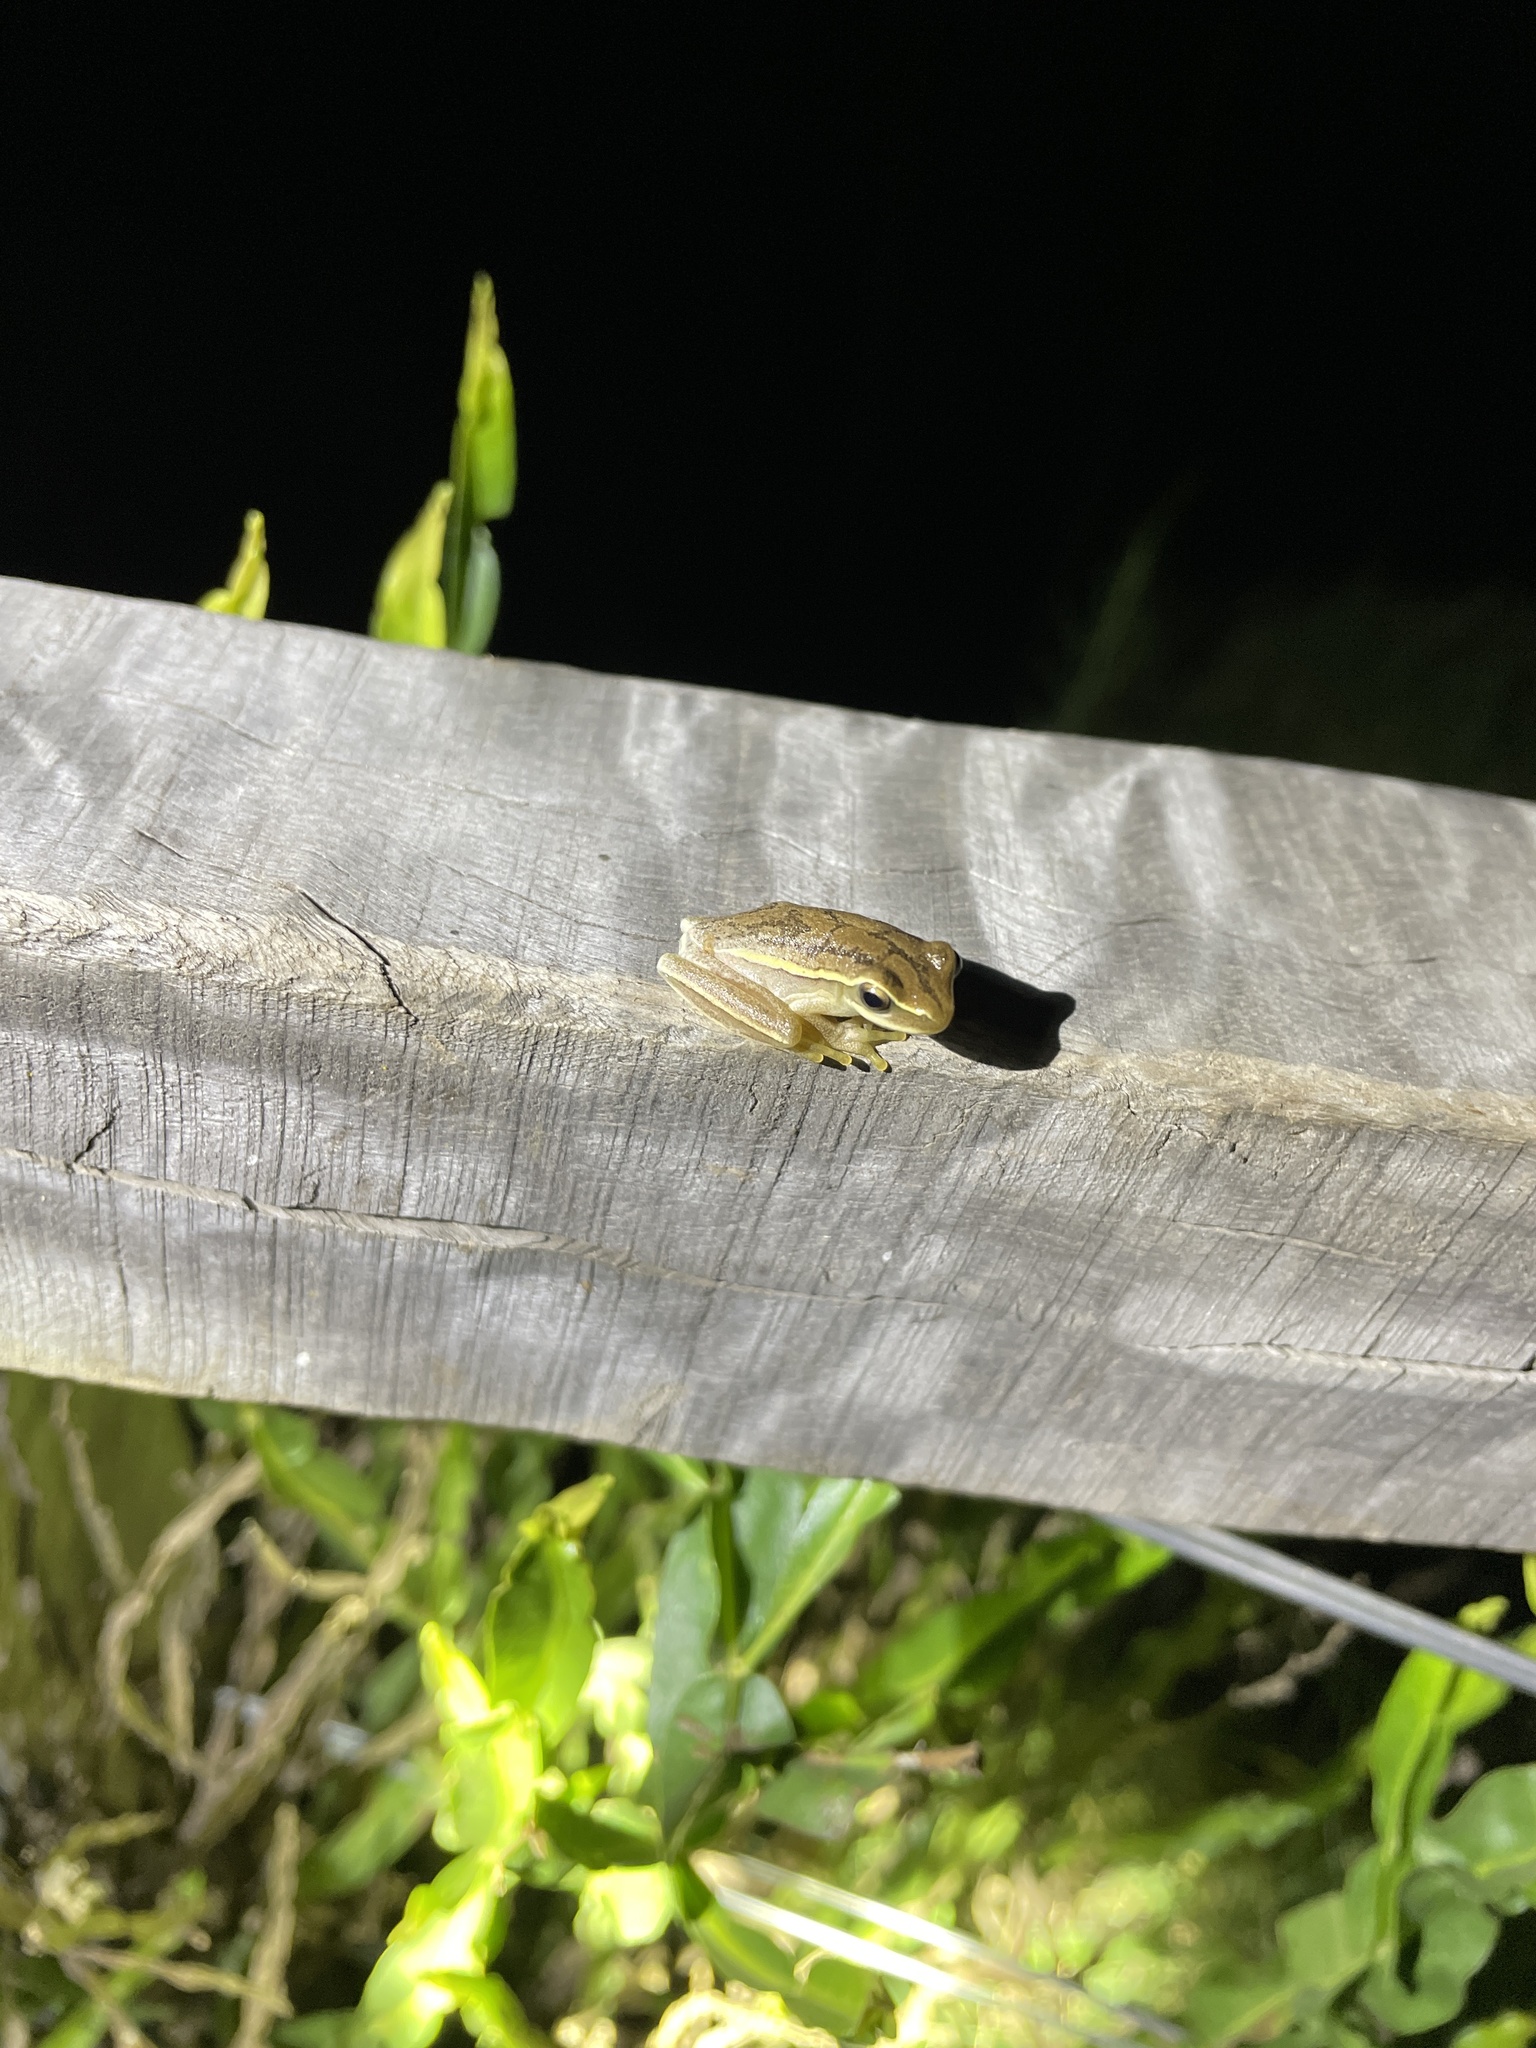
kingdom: Animalia
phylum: Chordata
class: Amphibia
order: Anura
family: Hylidae
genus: Boana
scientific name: Boana pulchella
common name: Montevideo treefrog
